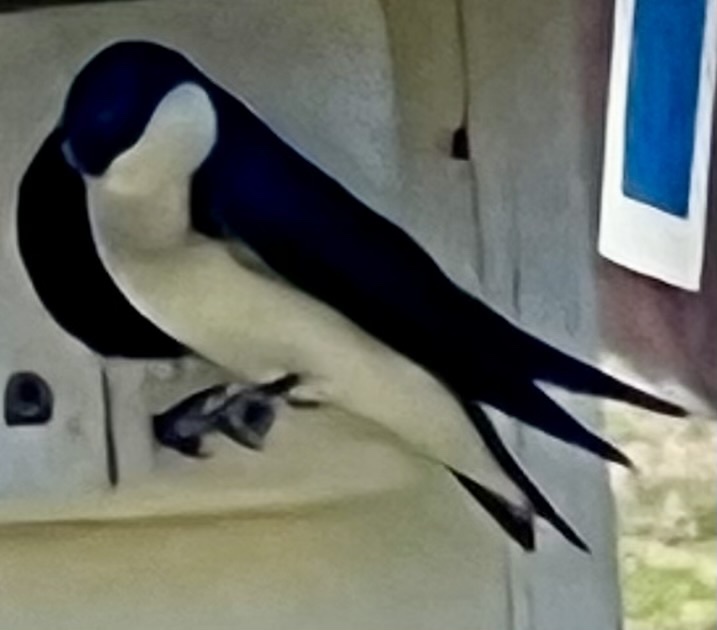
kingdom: Animalia
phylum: Chordata
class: Aves
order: Passeriformes
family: Hirundinidae
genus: Tachycineta
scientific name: Tachycineta bicolor
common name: Tree swallow
